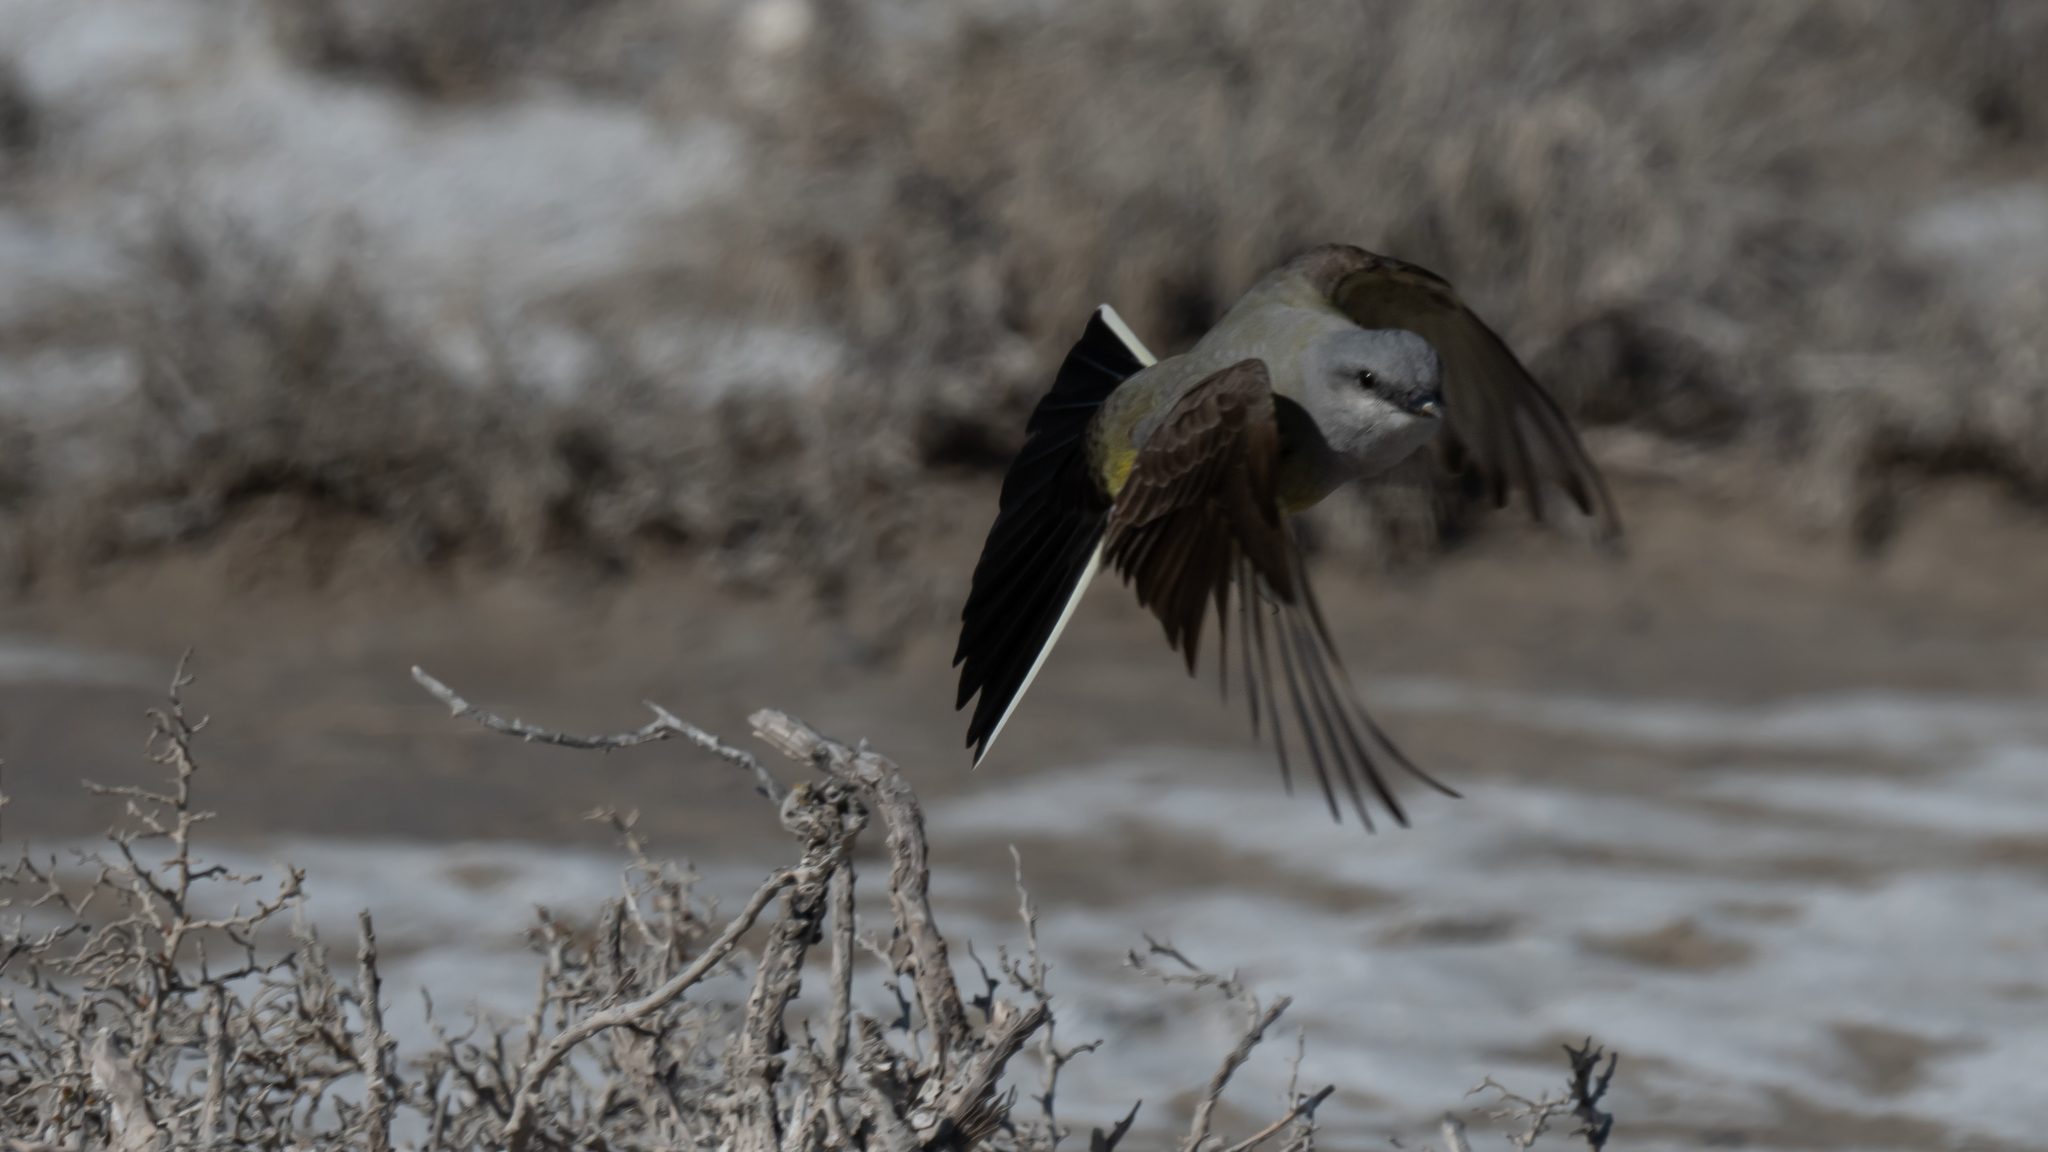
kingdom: Animalia
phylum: Chordata
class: Aves
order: Passeriformes
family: Tyrannidae
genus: Tyrannus
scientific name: Tyrannus verticalis
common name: Western kingbird
